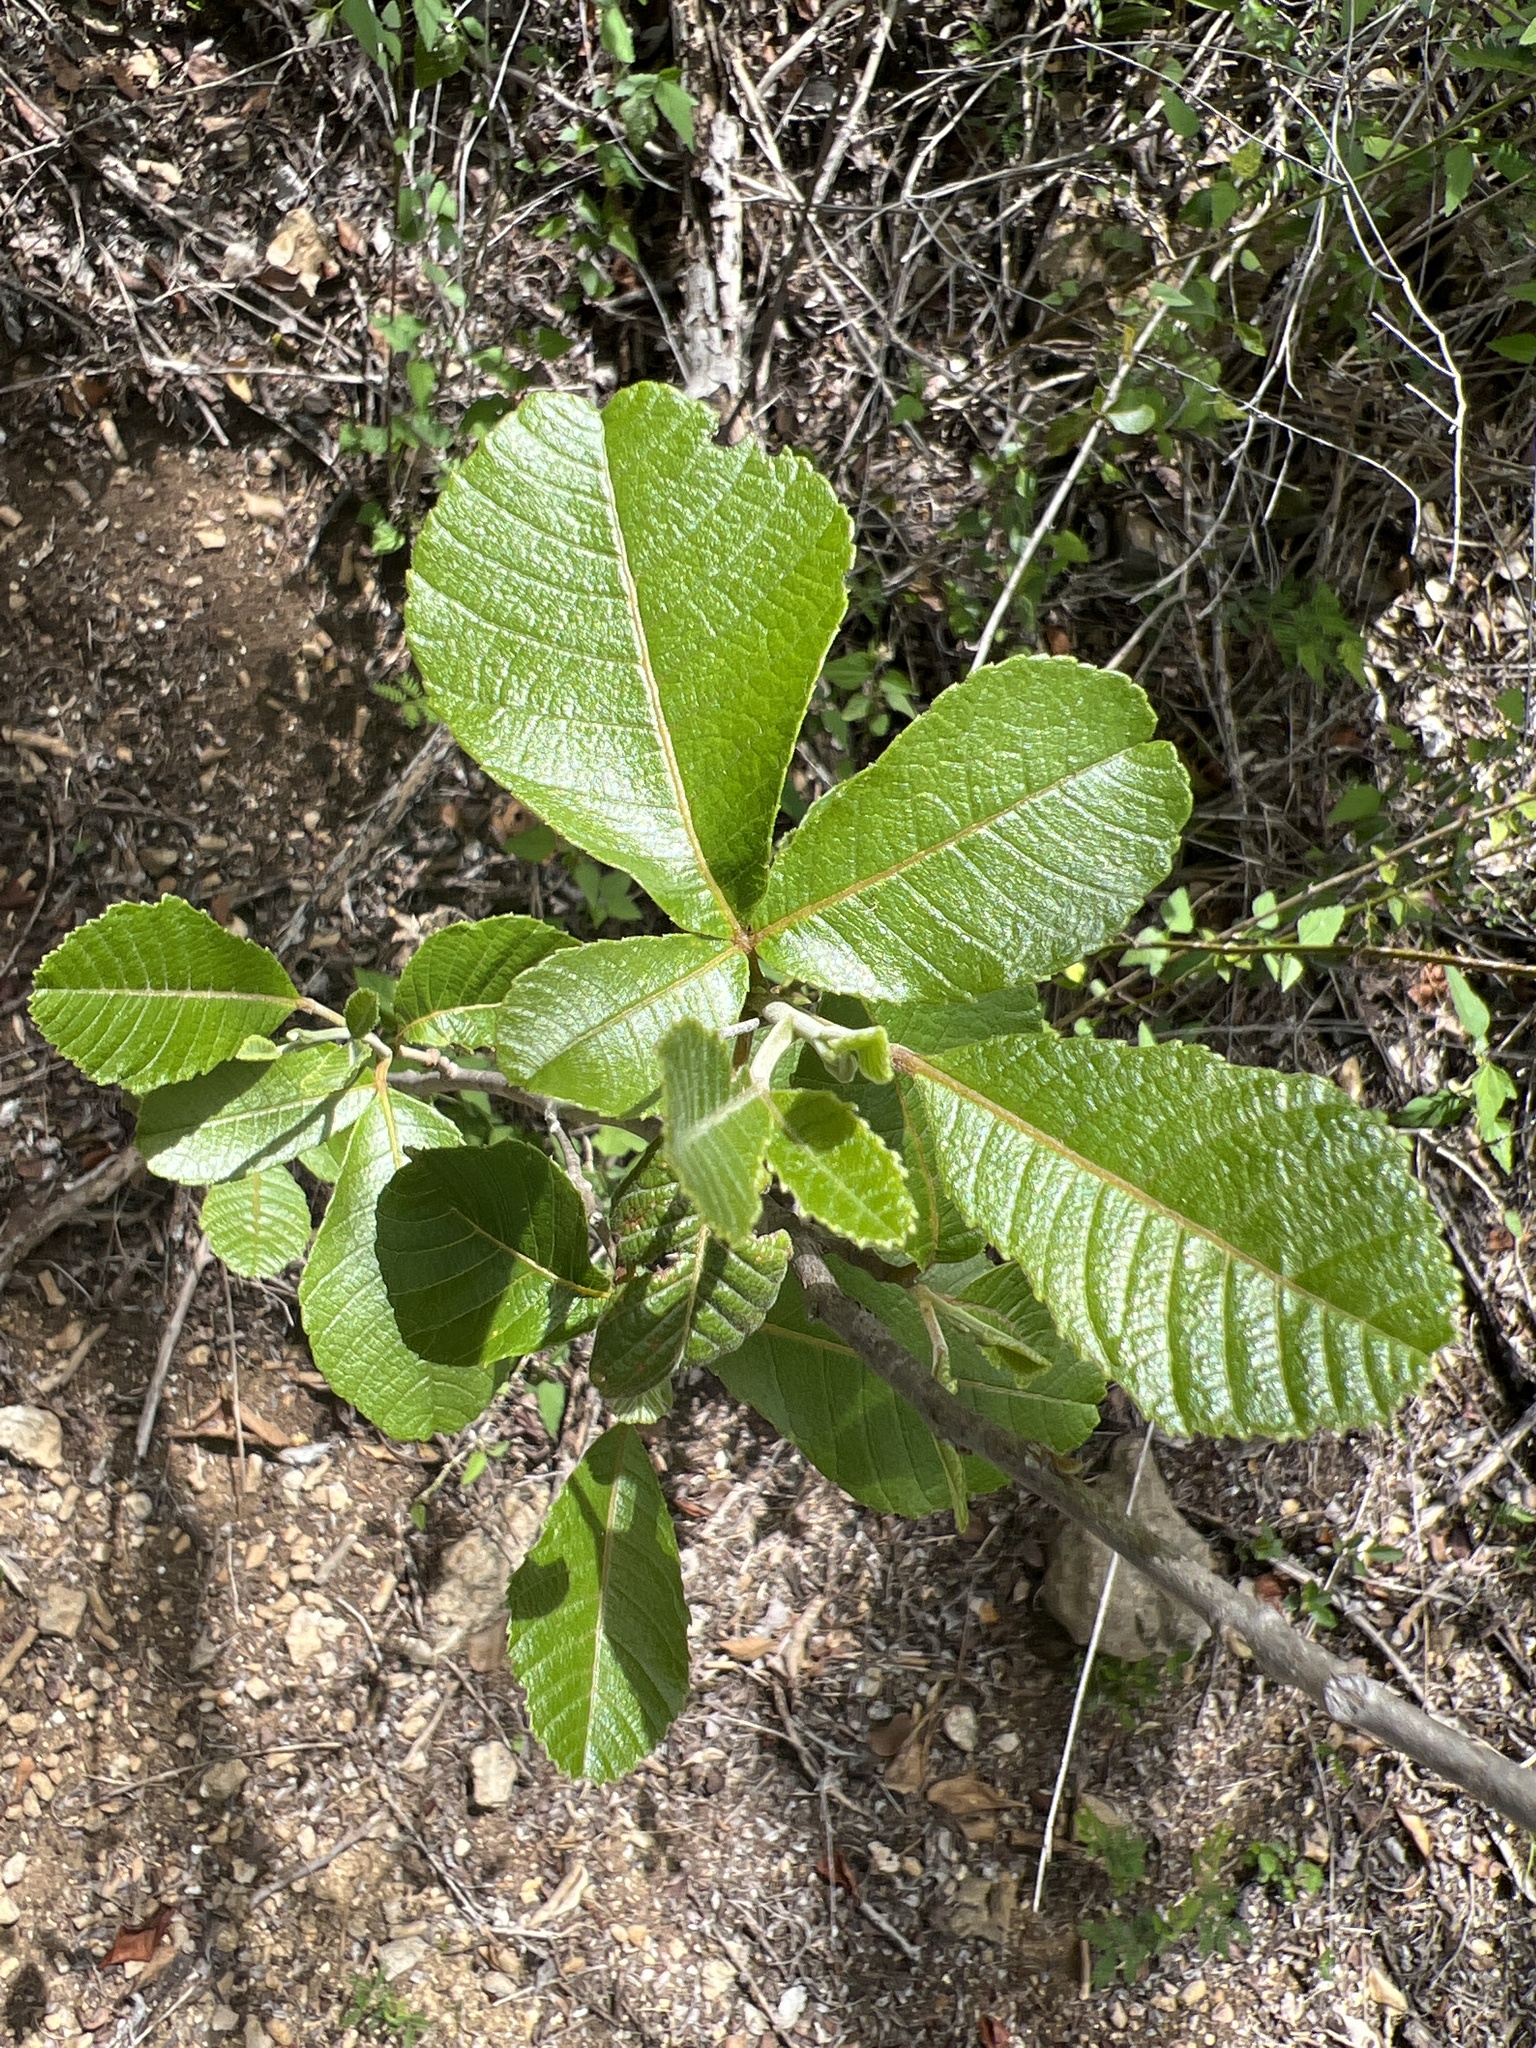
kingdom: Plantae
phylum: Tracheophyta
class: Magnoliopsida
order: Sapindales
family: Sapindaceae
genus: Thouinia
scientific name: Thouinia striata
